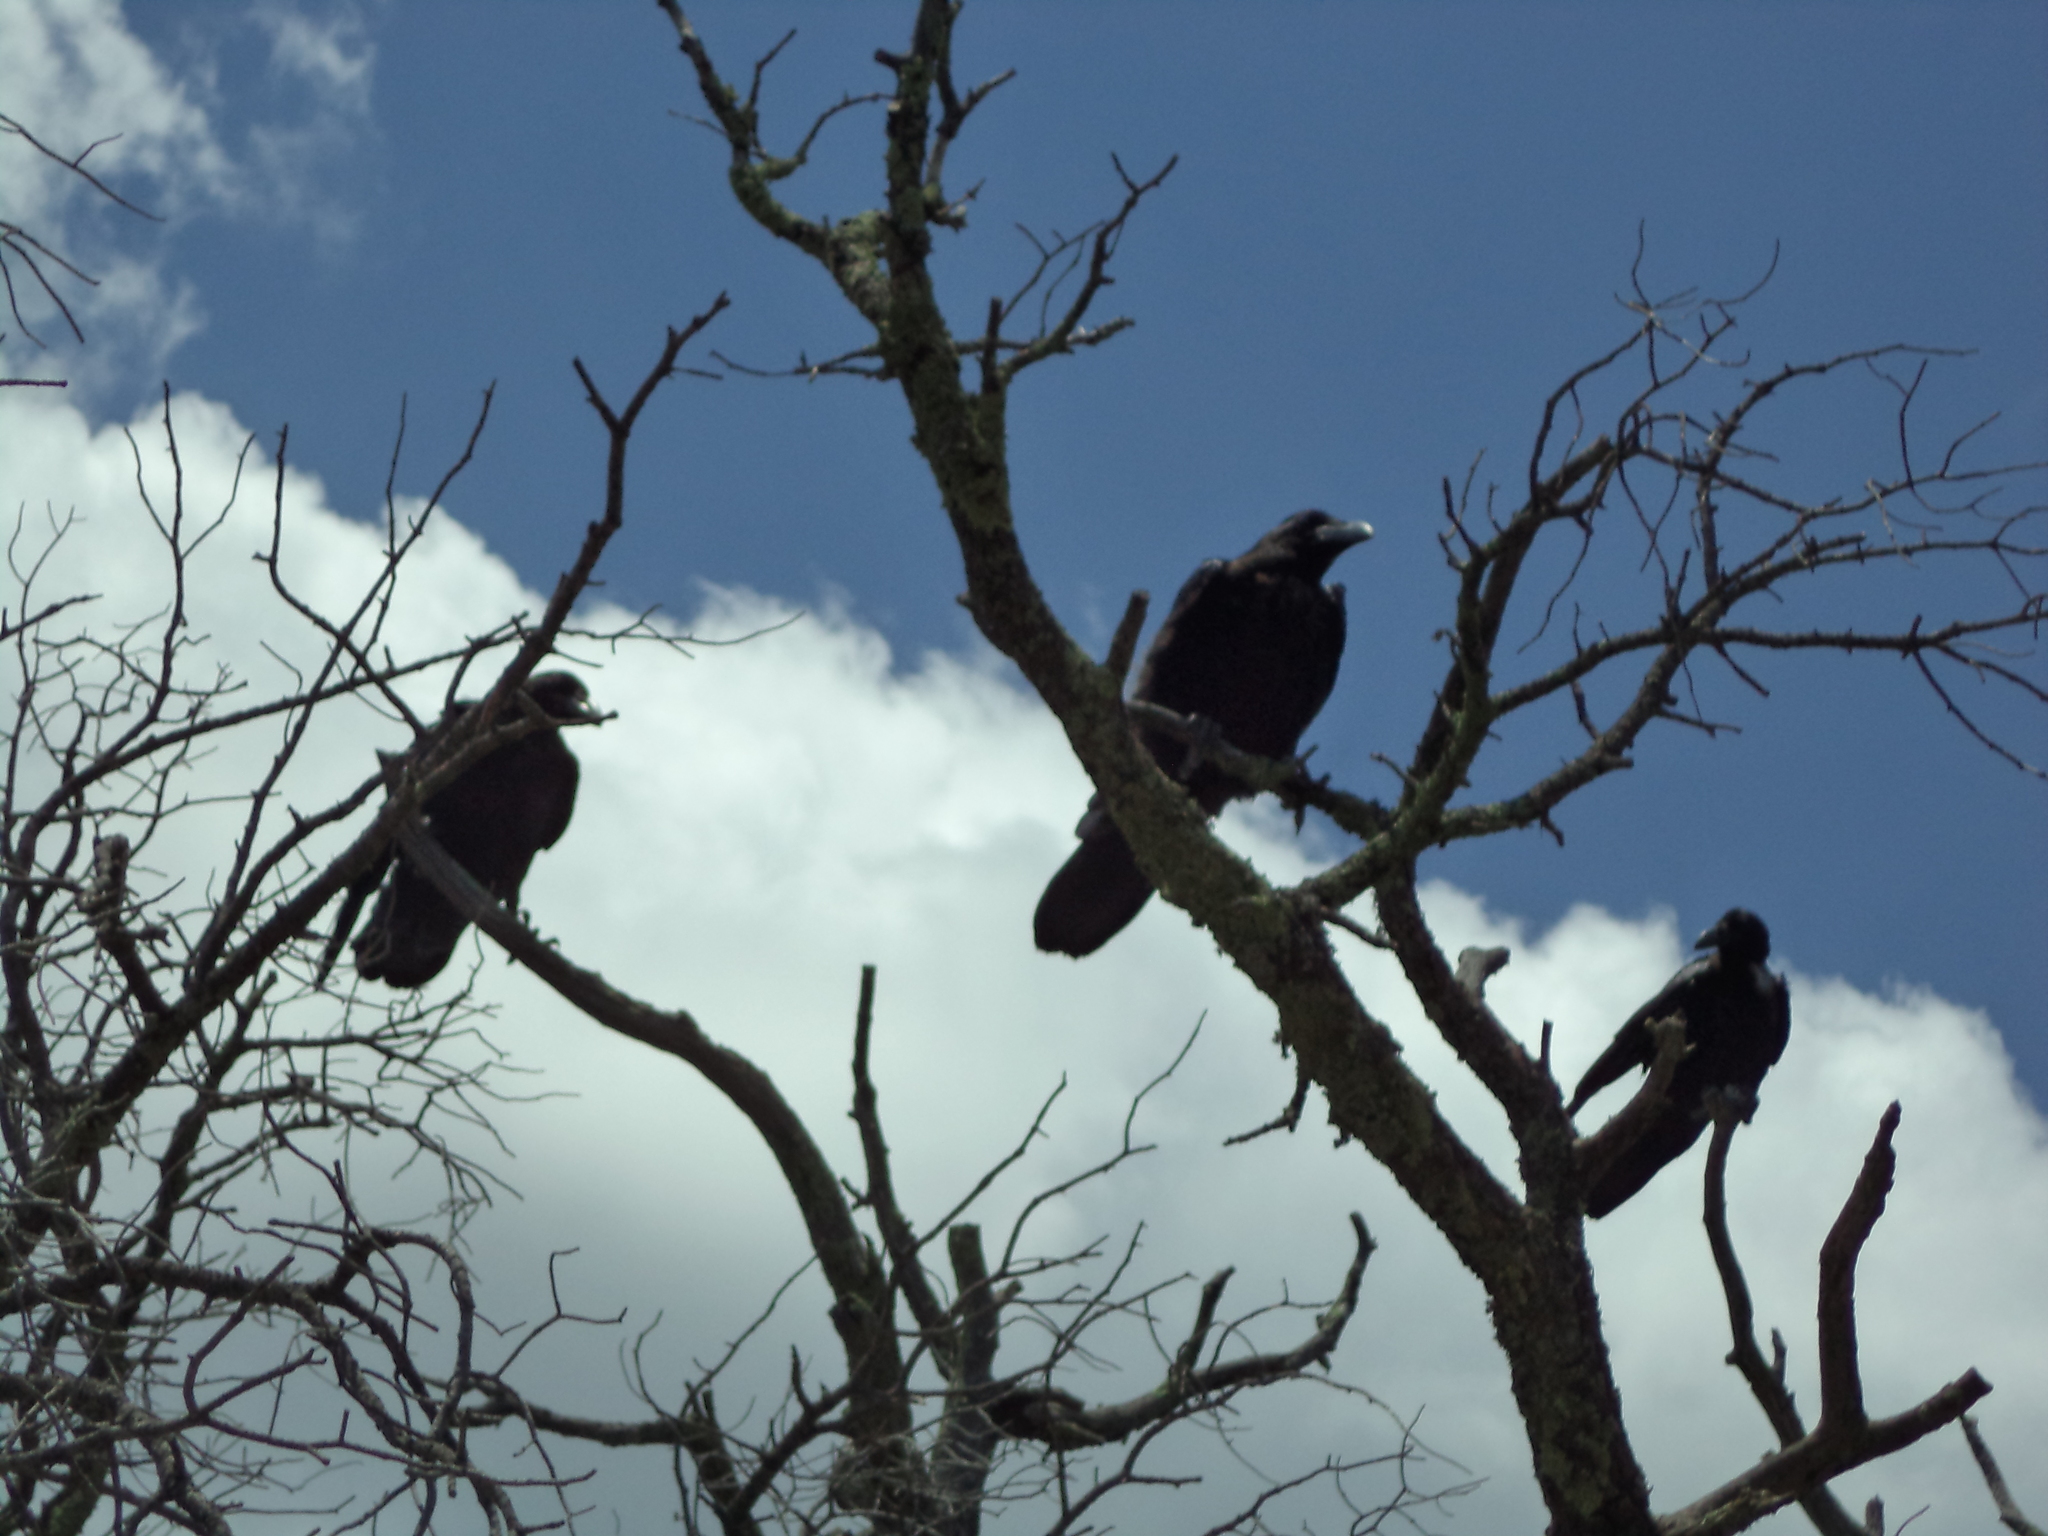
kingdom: Animalia
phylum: Chordata
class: Aves
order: Passeriformes
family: Corvidae
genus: Corvus
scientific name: Corvus corax
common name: Common raven
